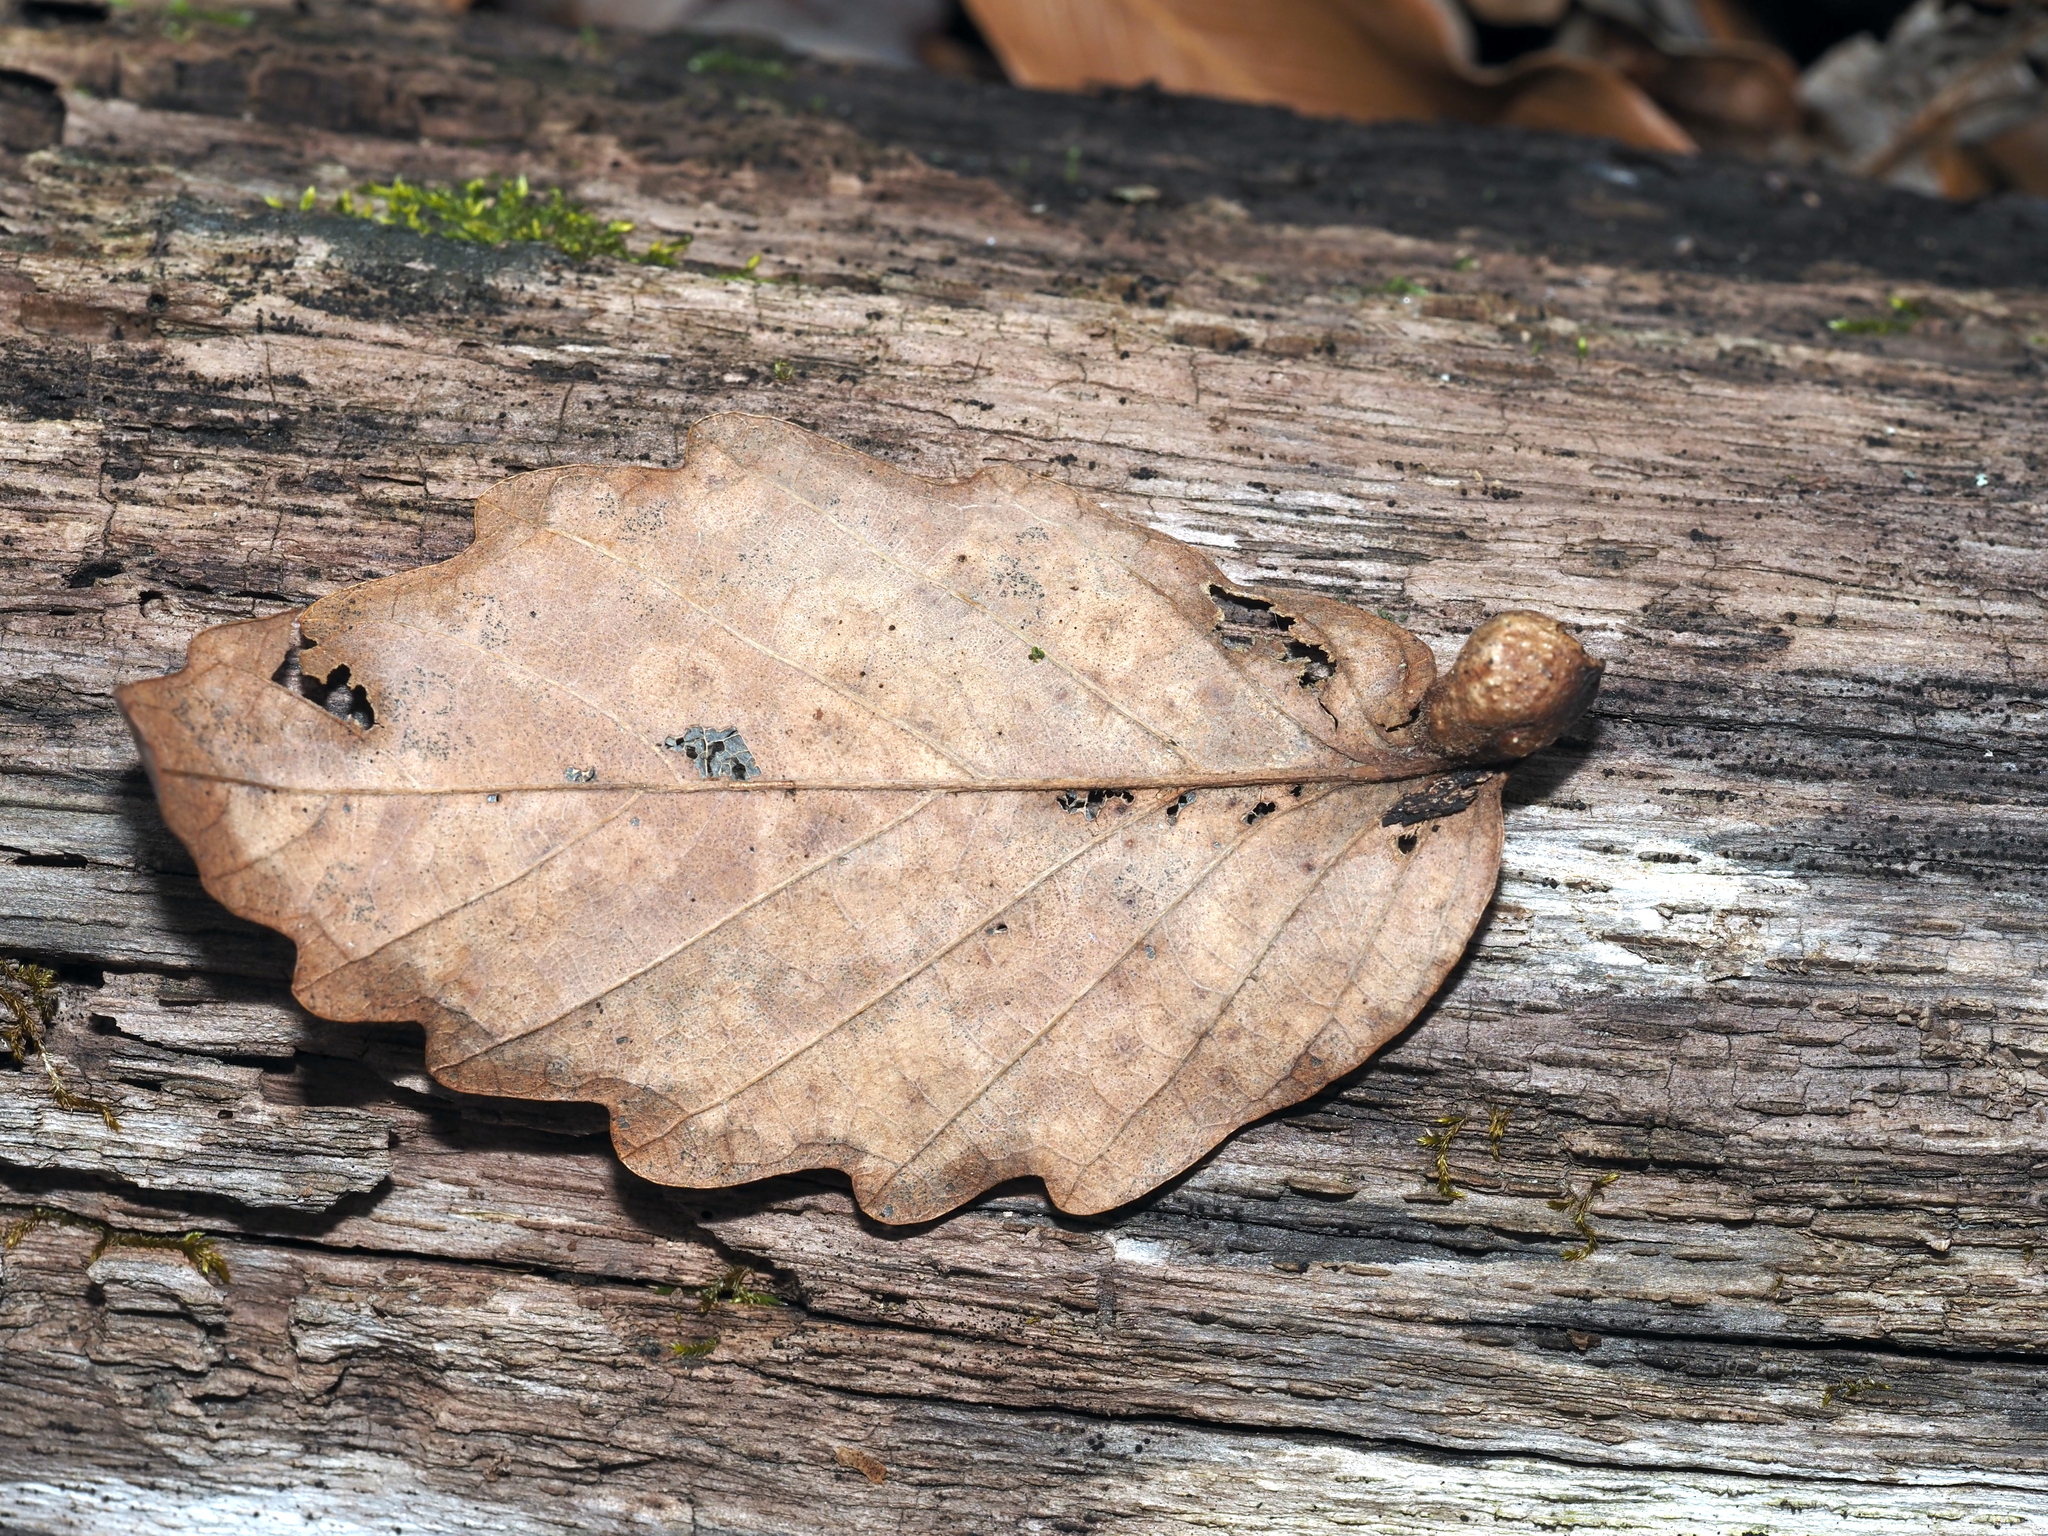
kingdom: Animalia
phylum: Arthropoda
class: Insecta
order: Hymenoptera
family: Cynipidae
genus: Andricus
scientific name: Andricus
